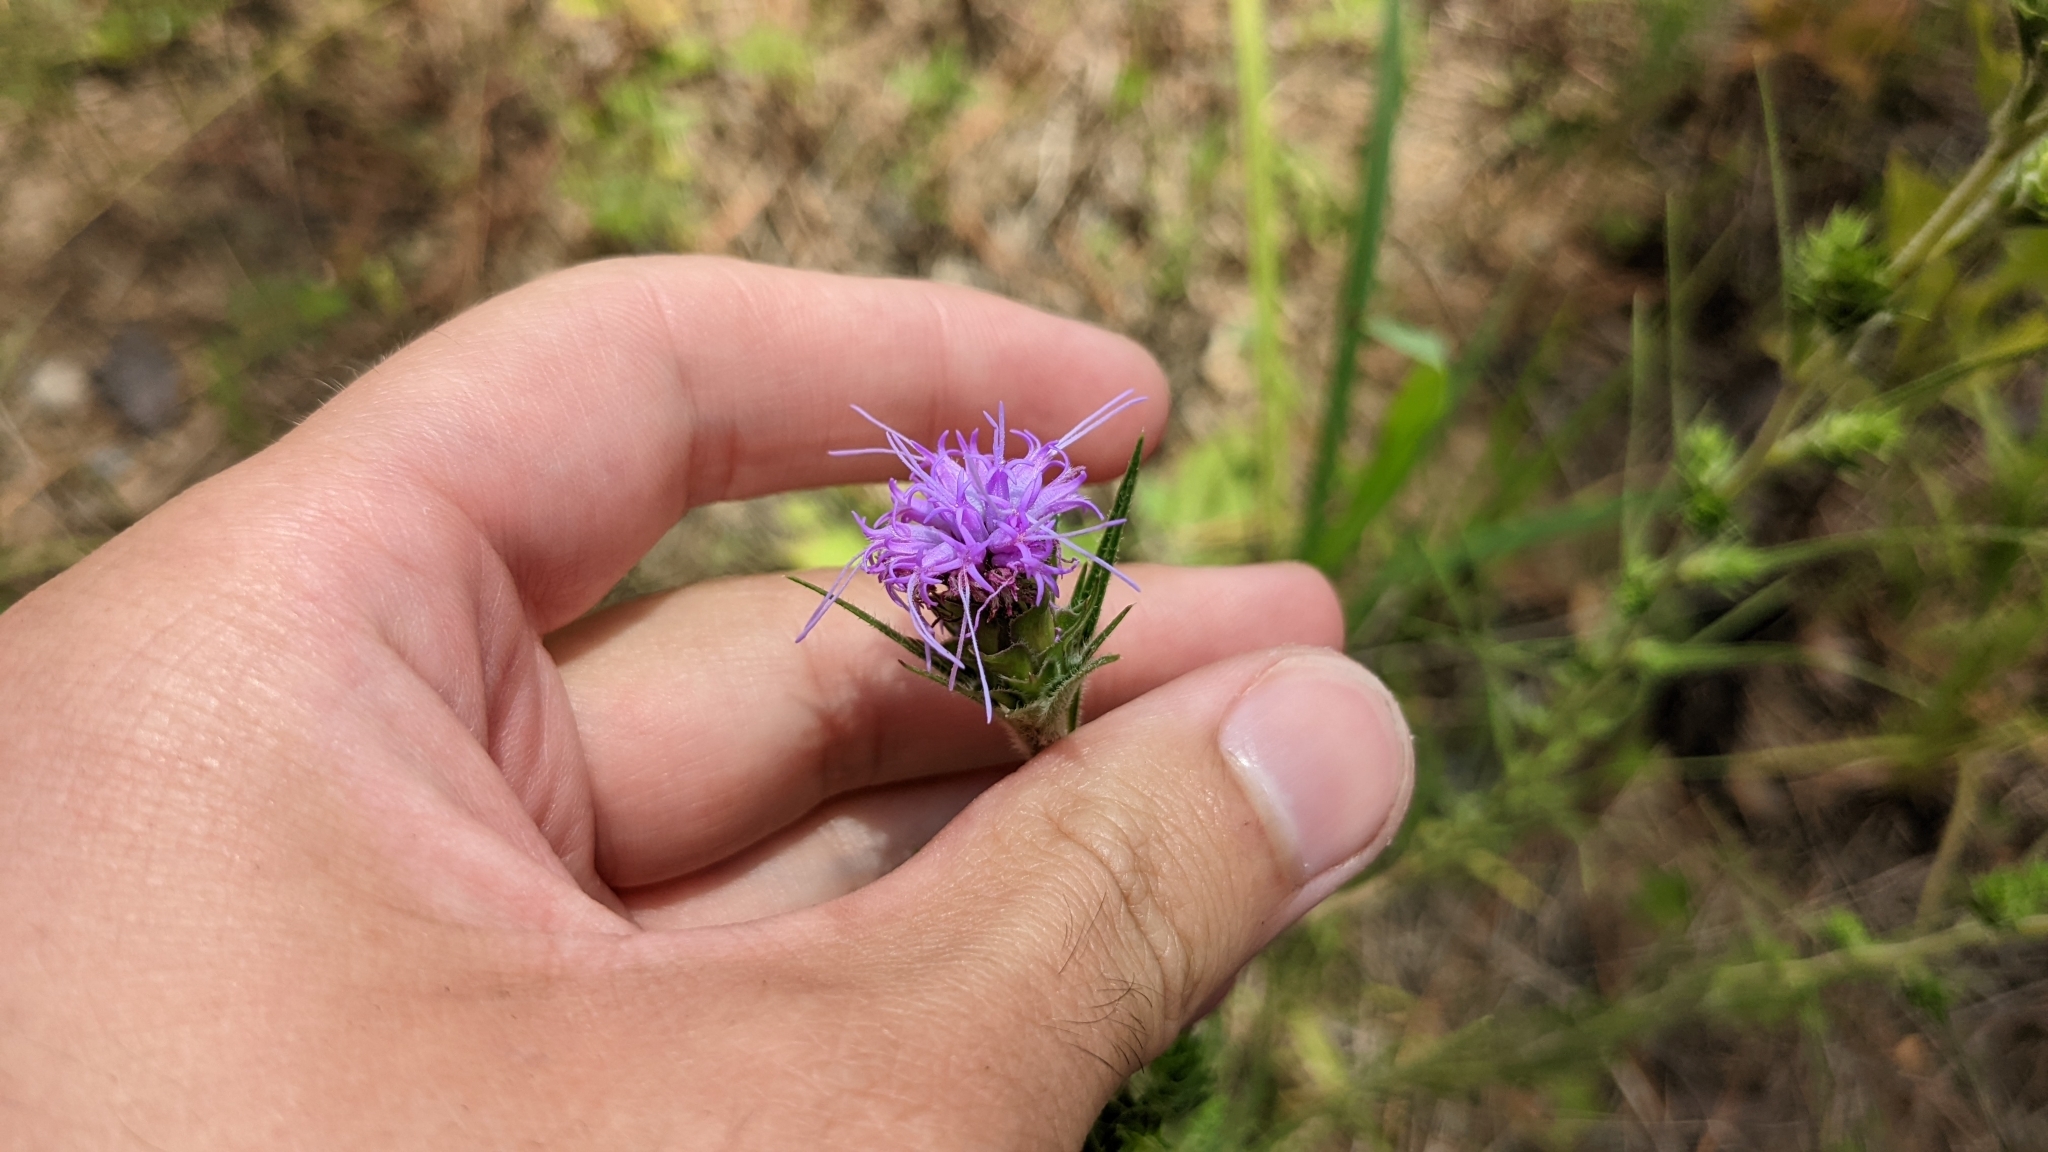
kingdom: Plantae
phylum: Tracheophyta
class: Magnoliopsida
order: Asterales
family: Asteraceae
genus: Liatris
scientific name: Liatris squarrosa
